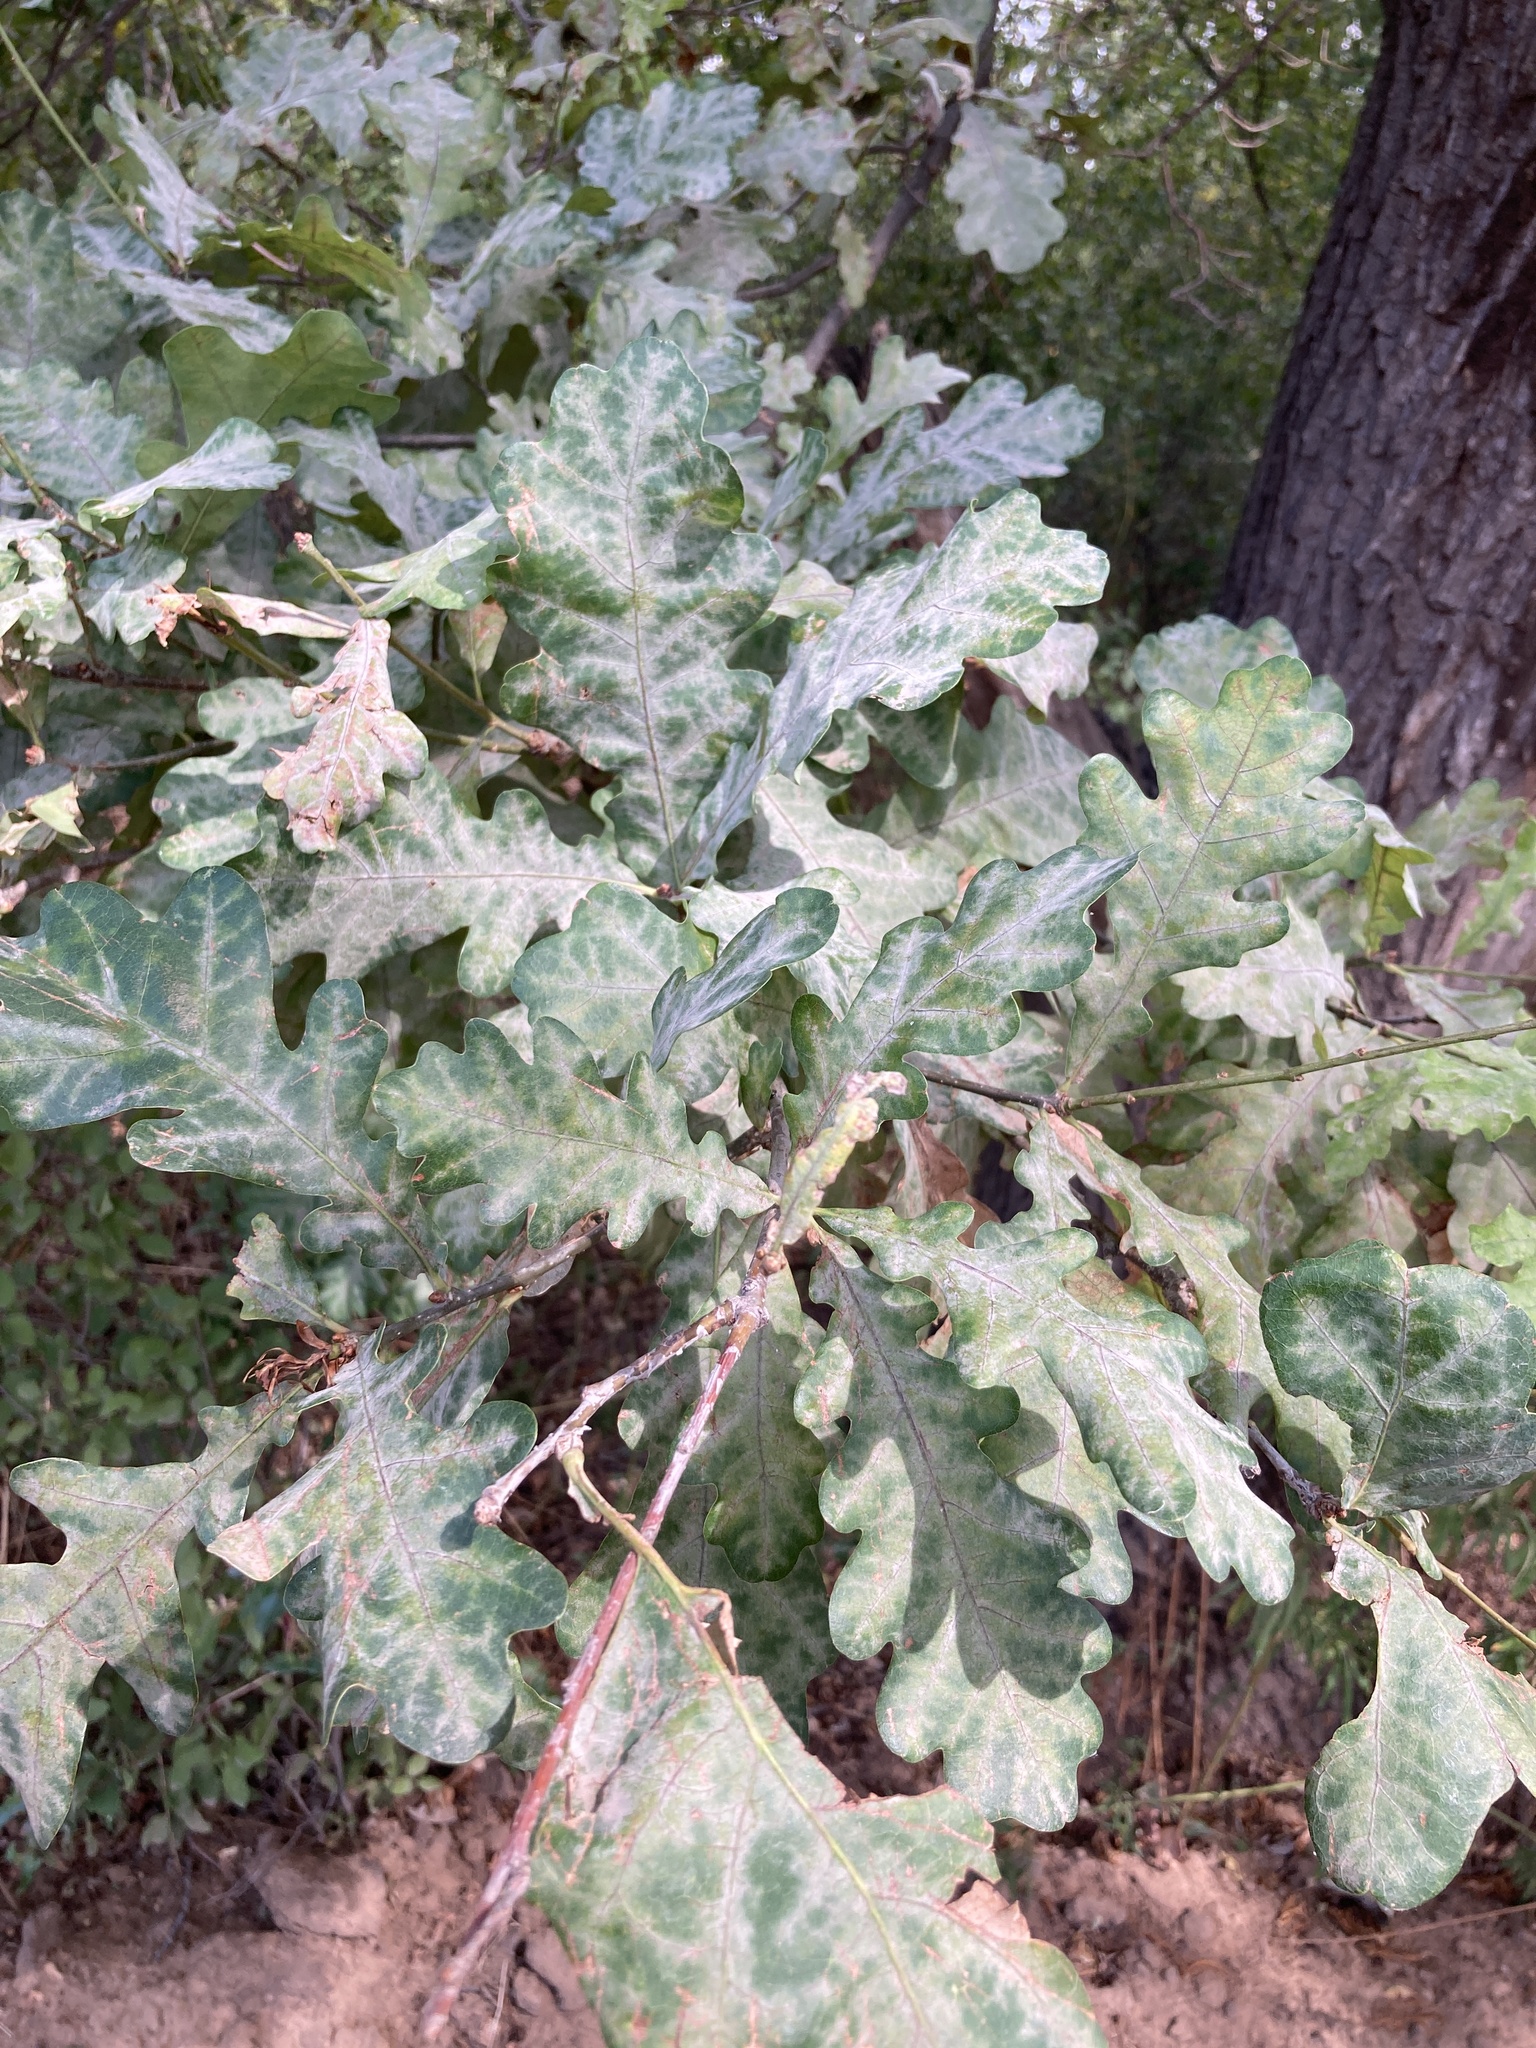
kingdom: Plantae
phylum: Tracheophyta
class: Magnoliopsida
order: Fagales
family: Fagaceae
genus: Quercus
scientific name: Quercus robur
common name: Pedunculate oak
